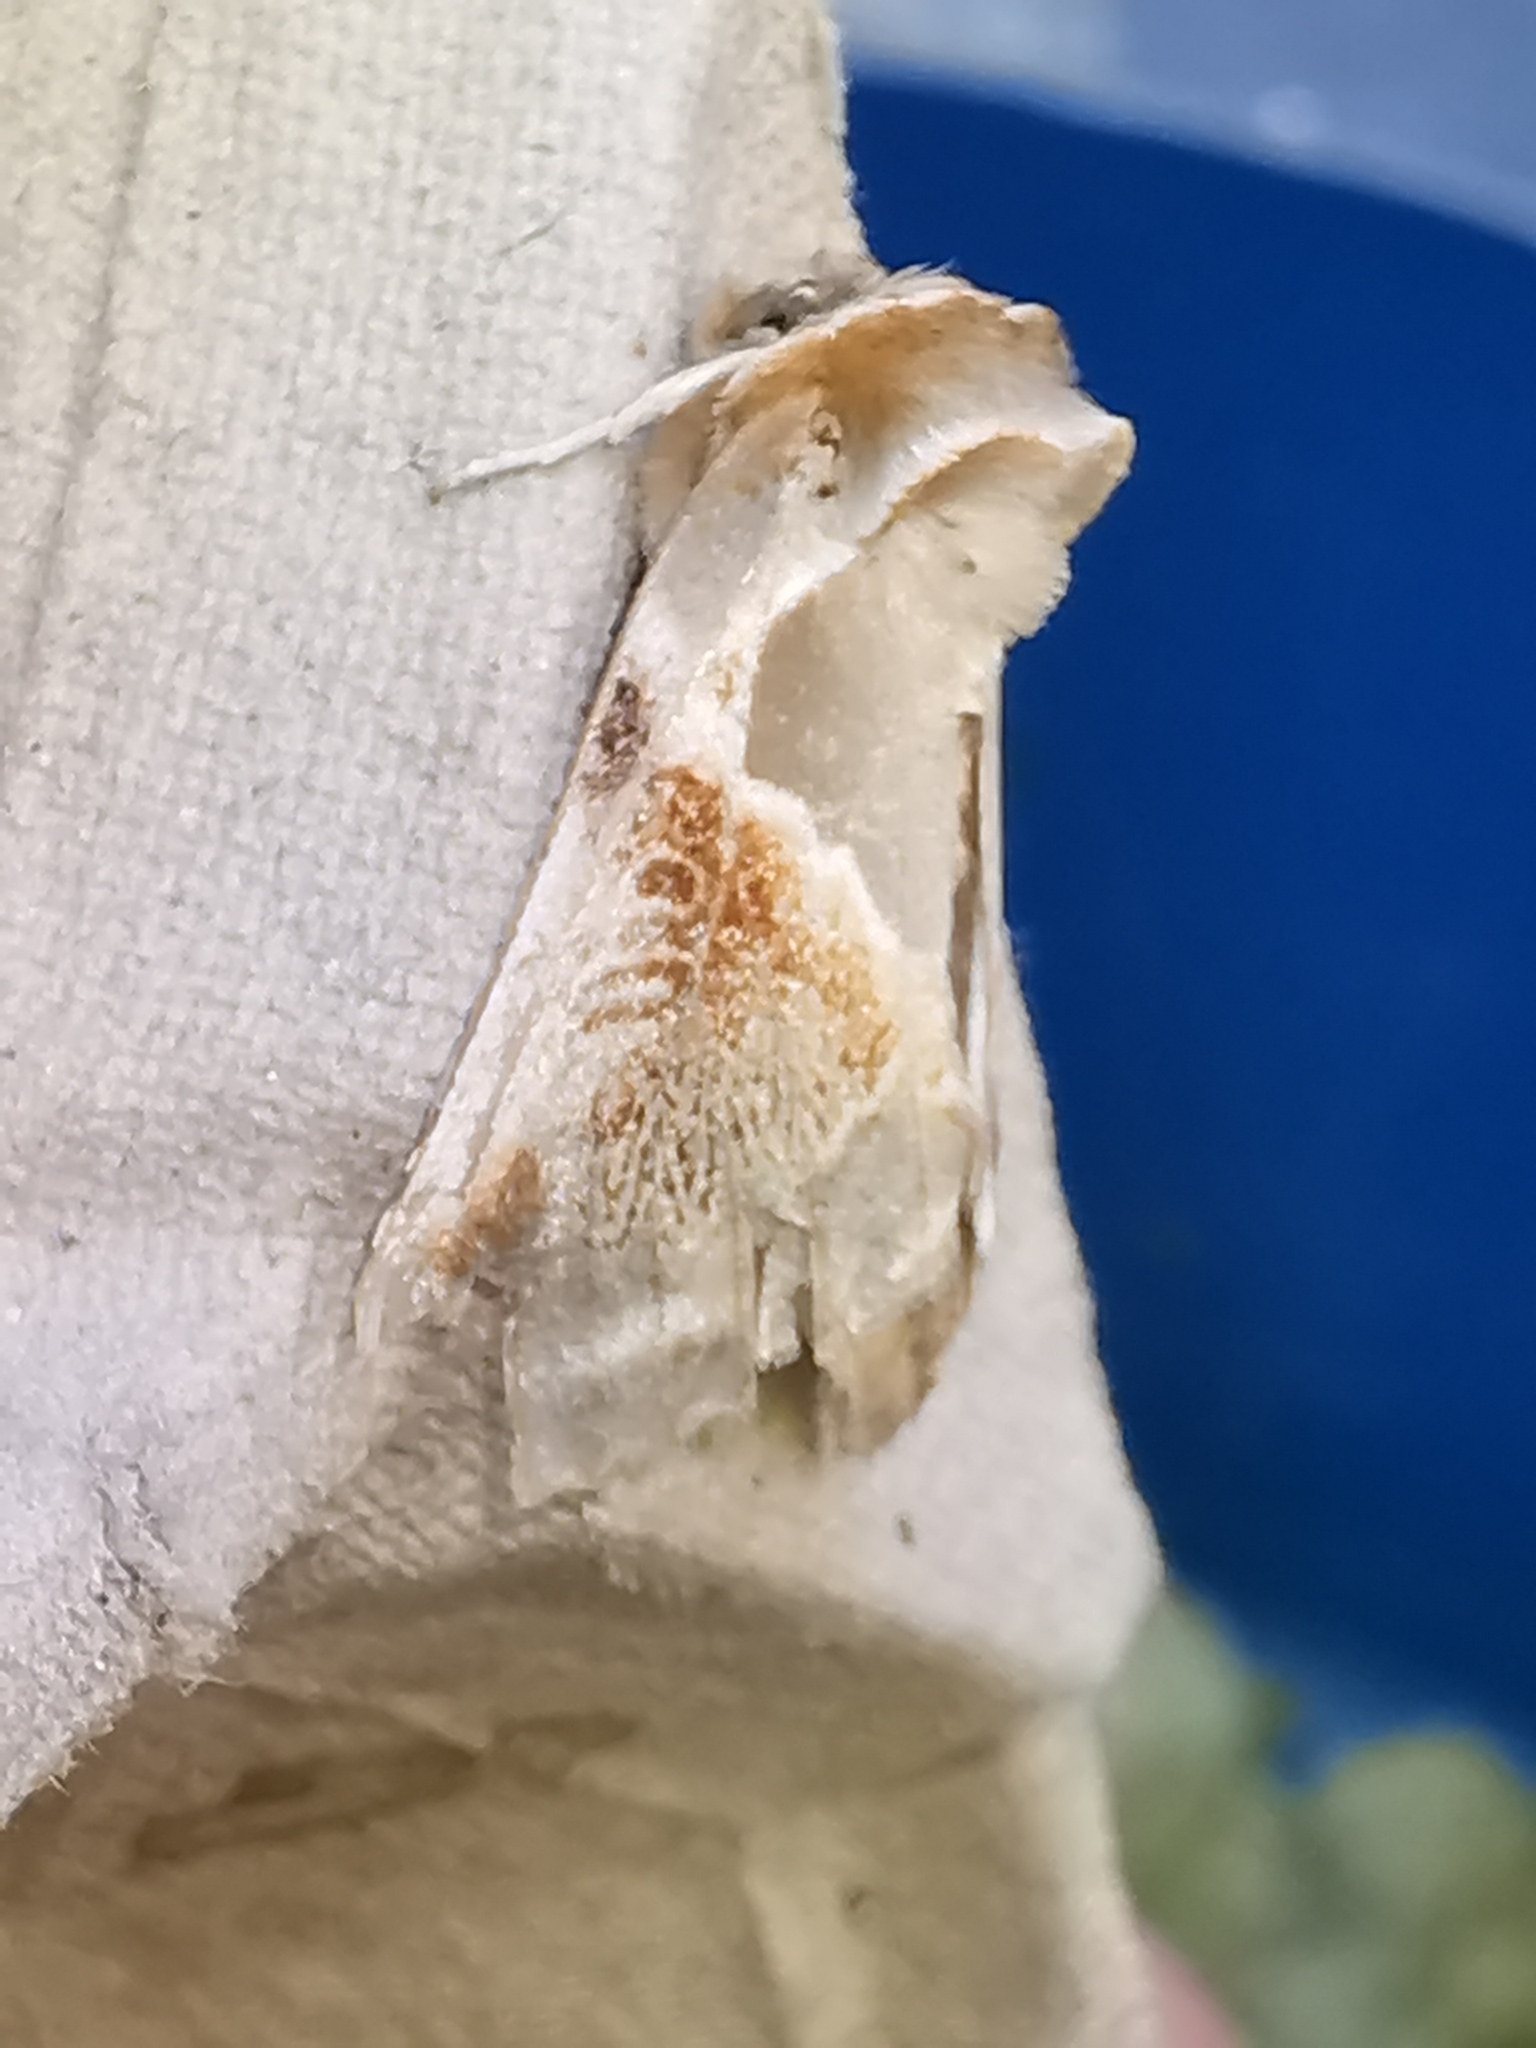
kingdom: Animalia
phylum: Arthropoda
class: Insecta
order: Lepidoptera
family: Drepanidae
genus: Habrosyne
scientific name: Habrosyne pyritoides
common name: Buff arches
